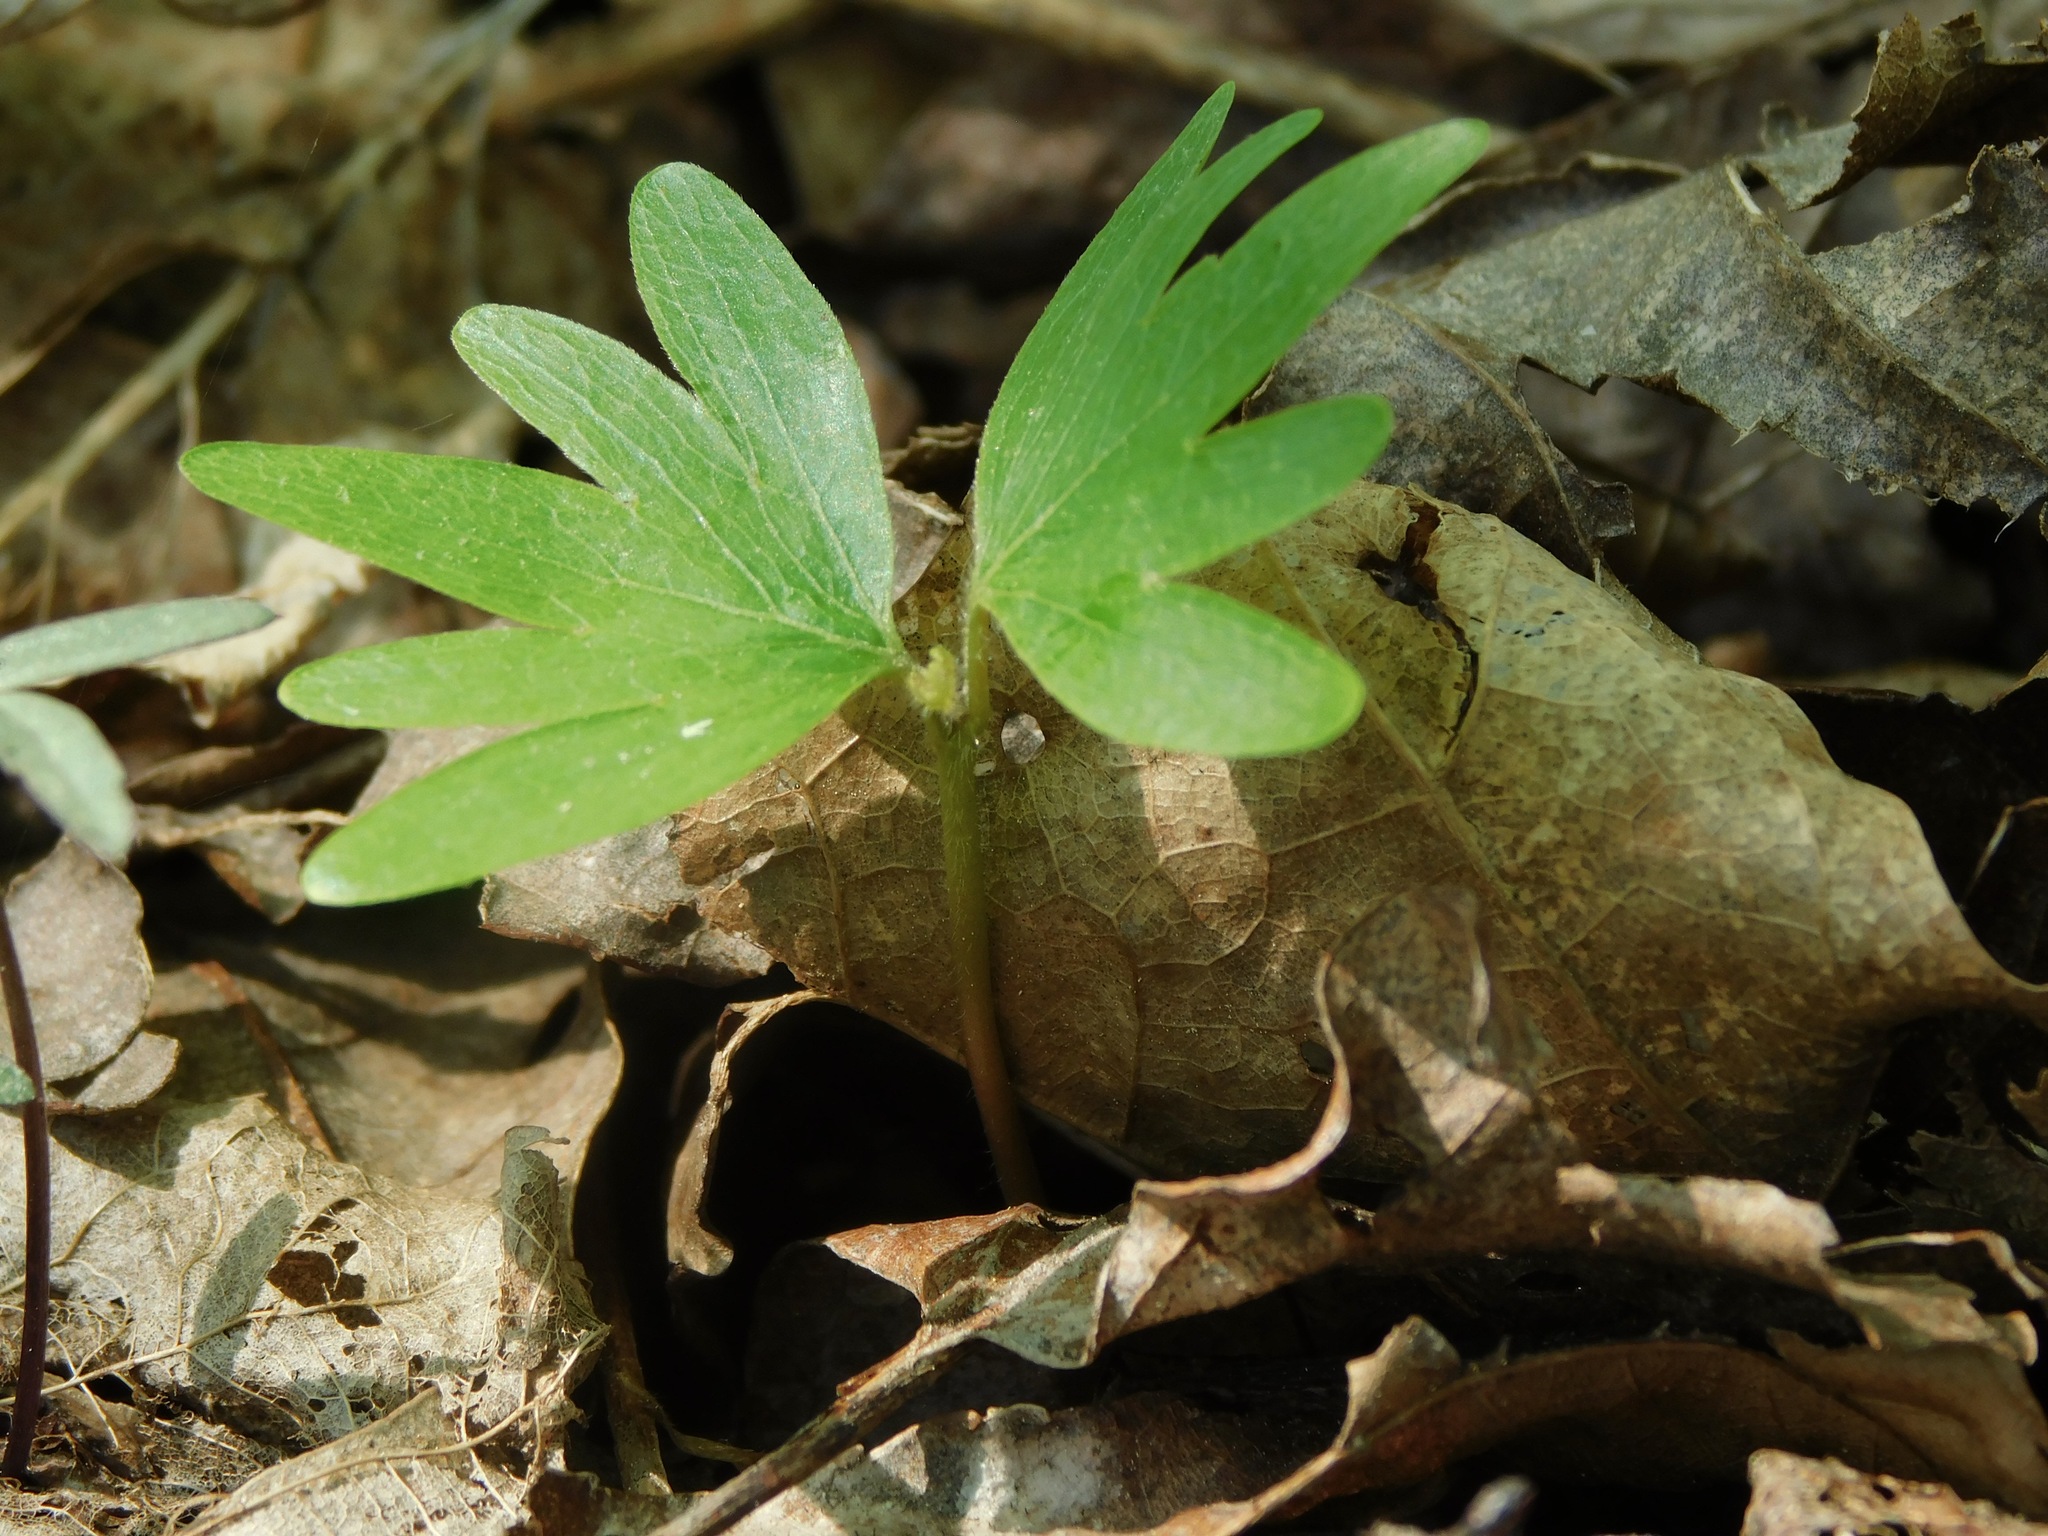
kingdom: Plantae
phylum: Tracheophyta
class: Magnoliopsida
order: Malvales
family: Malvaceae
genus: Tilia
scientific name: Tilia americana
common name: Basswood
